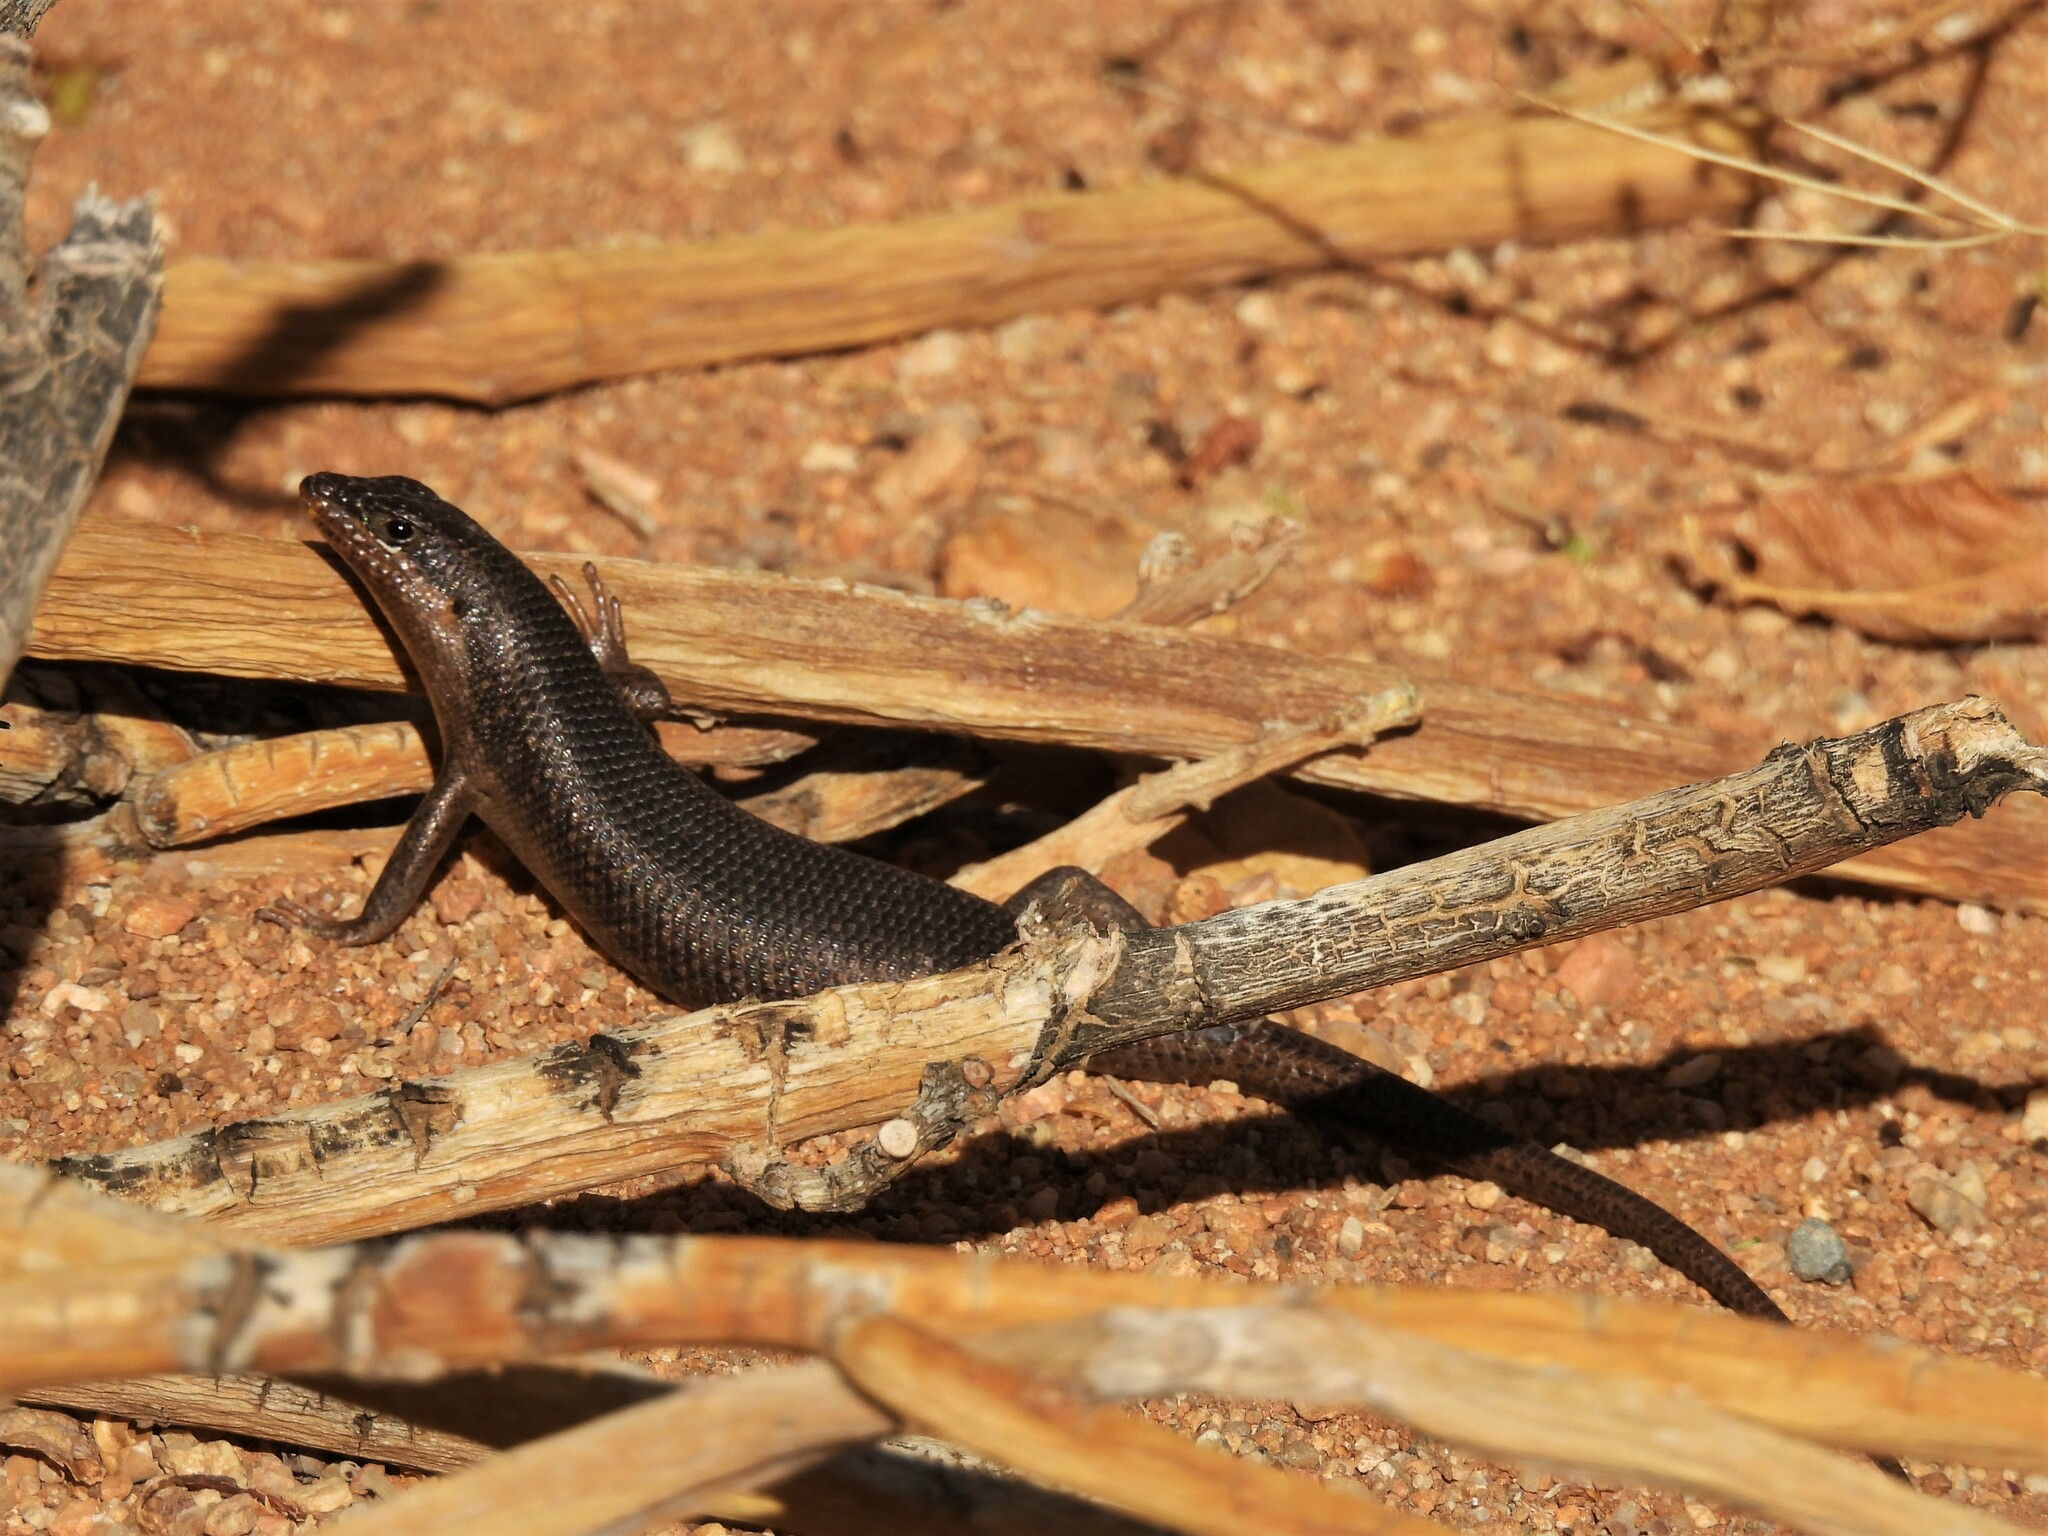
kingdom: Animalia
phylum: Chordata
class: Squamata
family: Scincidae
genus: Trachylepis
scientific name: Trachylepis sparsa
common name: Karasburg tree skink
